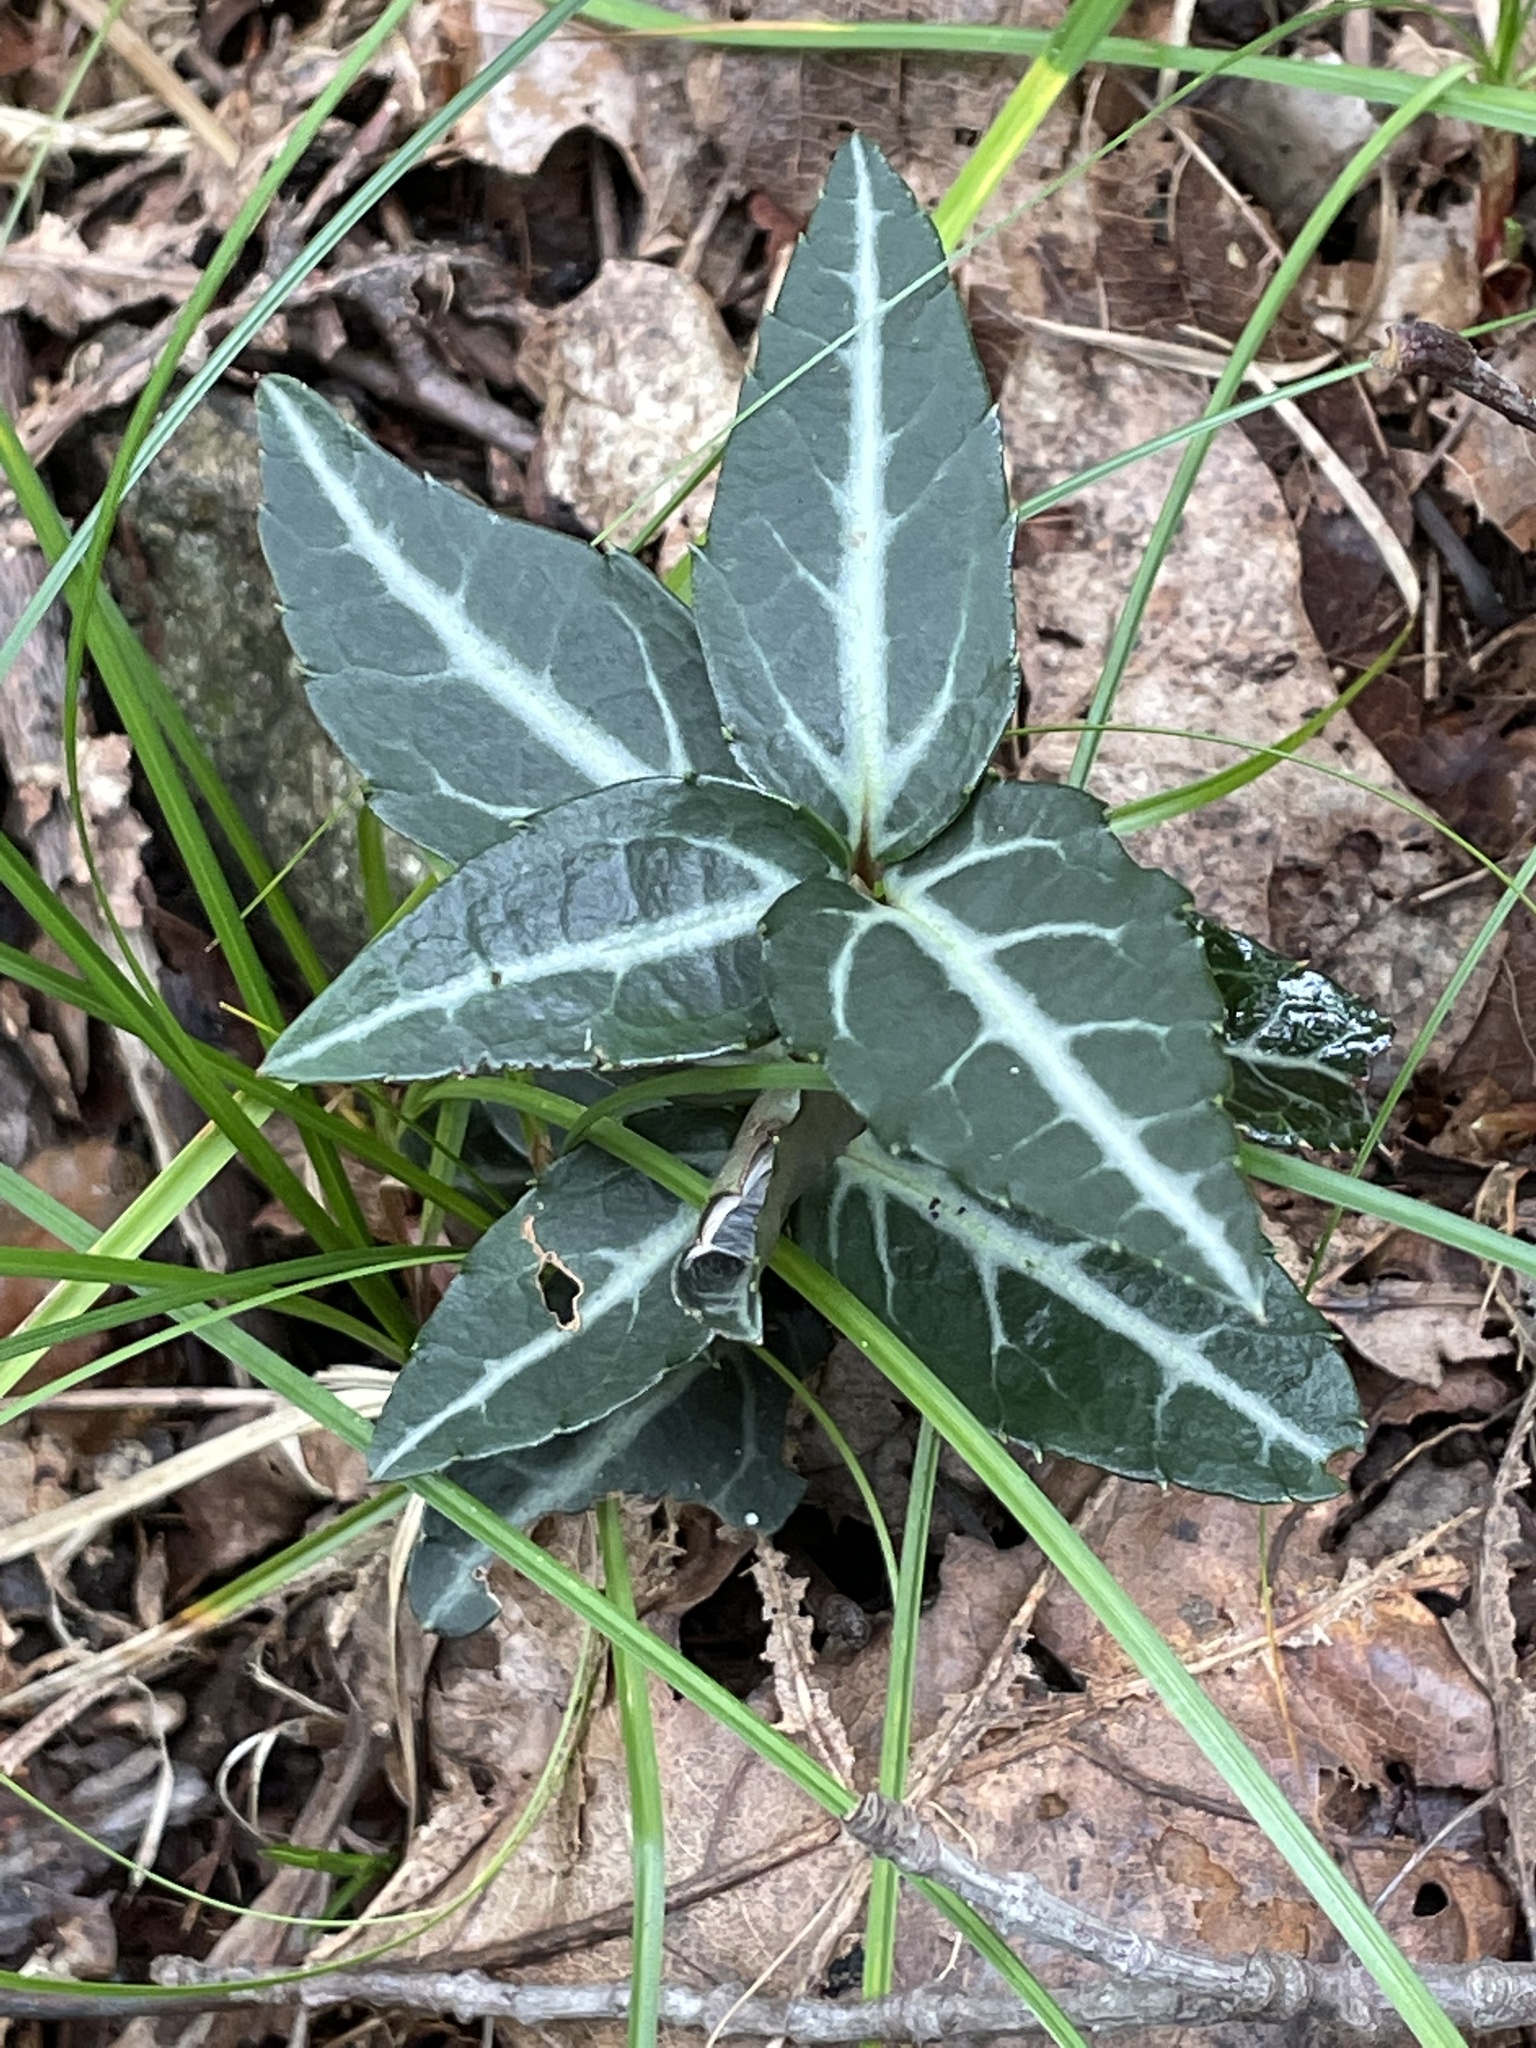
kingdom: Plantae
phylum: Tracheophyta
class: Magnoliopsida
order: Ericales
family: Ericaceae
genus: Chimaphila
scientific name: Chimaphila maculata
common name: Spotted pipsissewa
